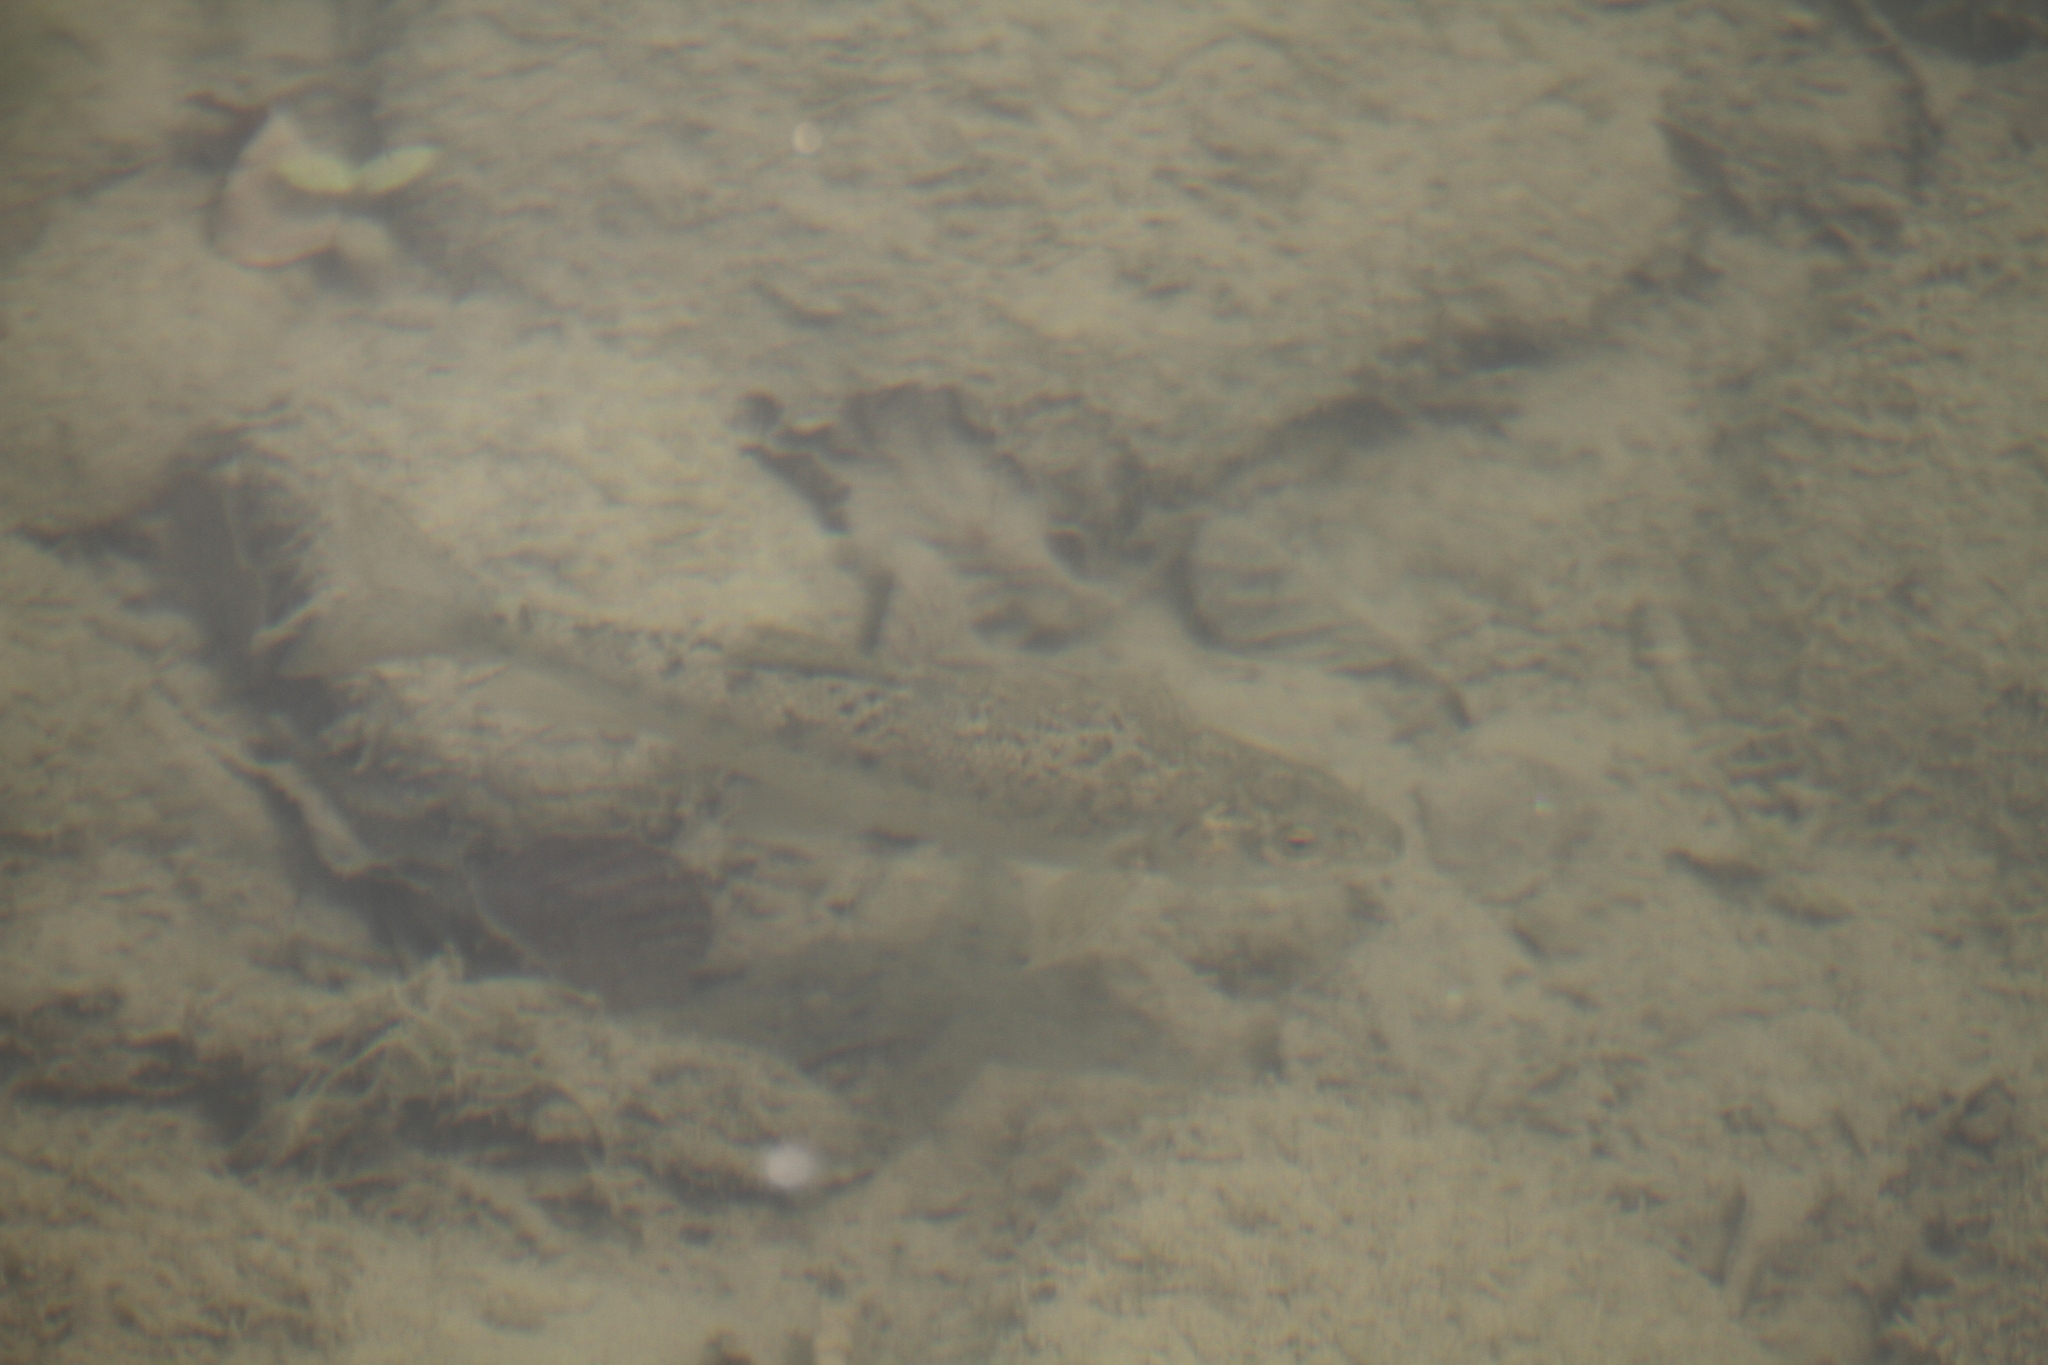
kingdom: Animalia
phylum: Chordata
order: Cypriniformes
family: Cyprinidae
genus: Barbus
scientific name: Barbus meridionalis
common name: Mediterranean barbel
